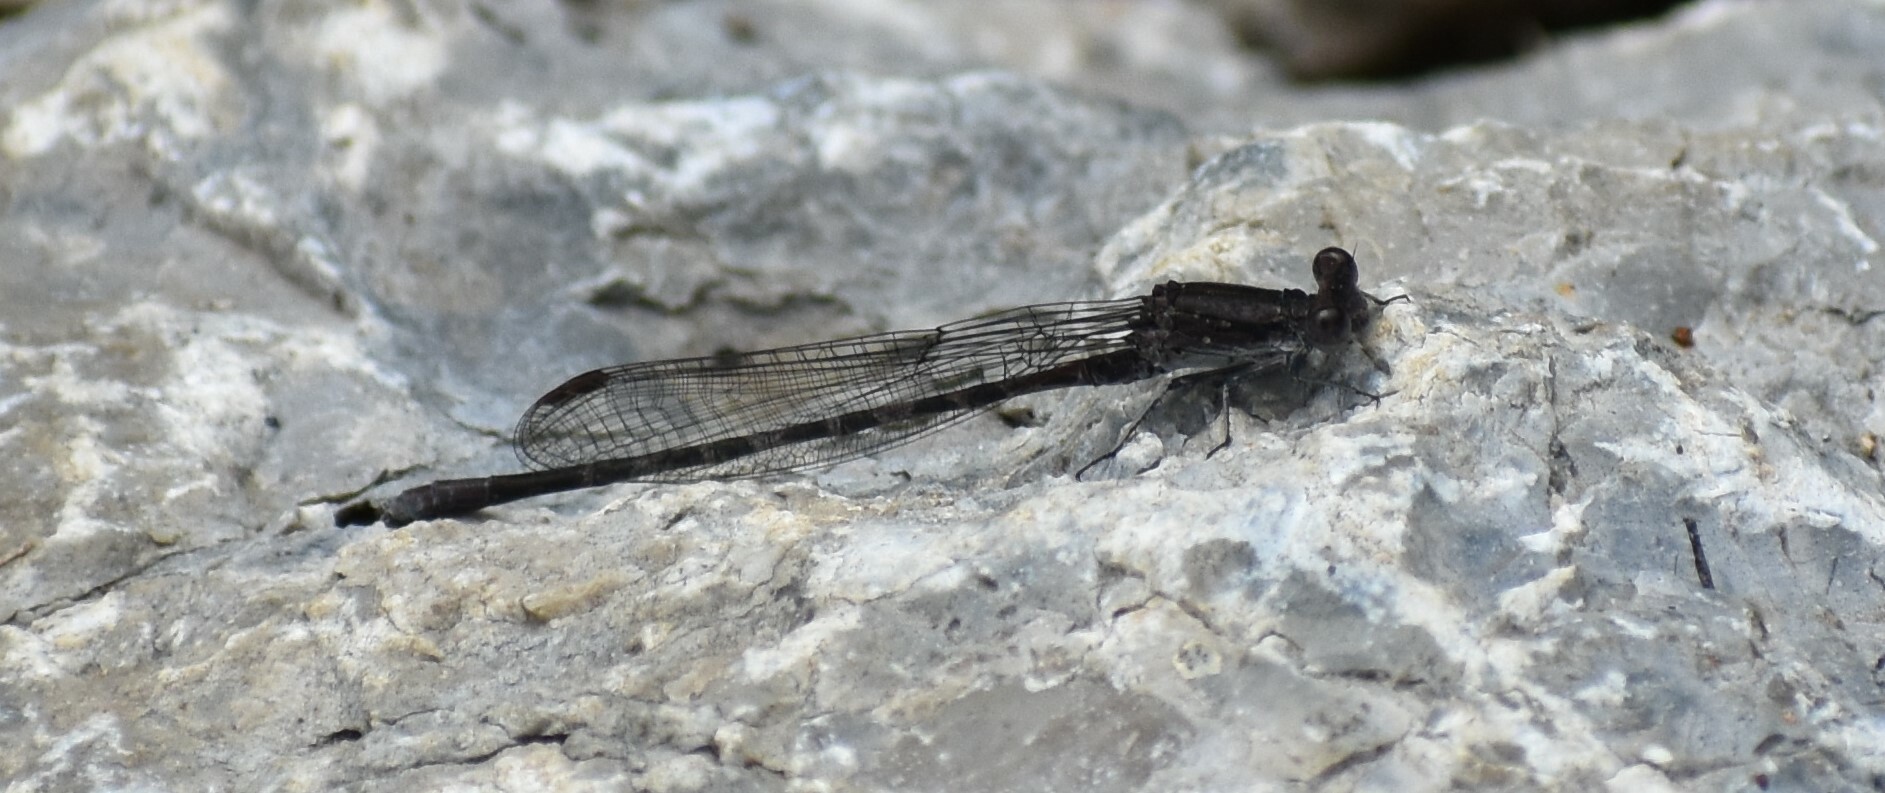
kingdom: Animalia
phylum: Arthropoda
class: Insecta
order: Odonata
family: Coenagrionidae
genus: Argia
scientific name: Argia immunda
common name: Kiowa dancer
